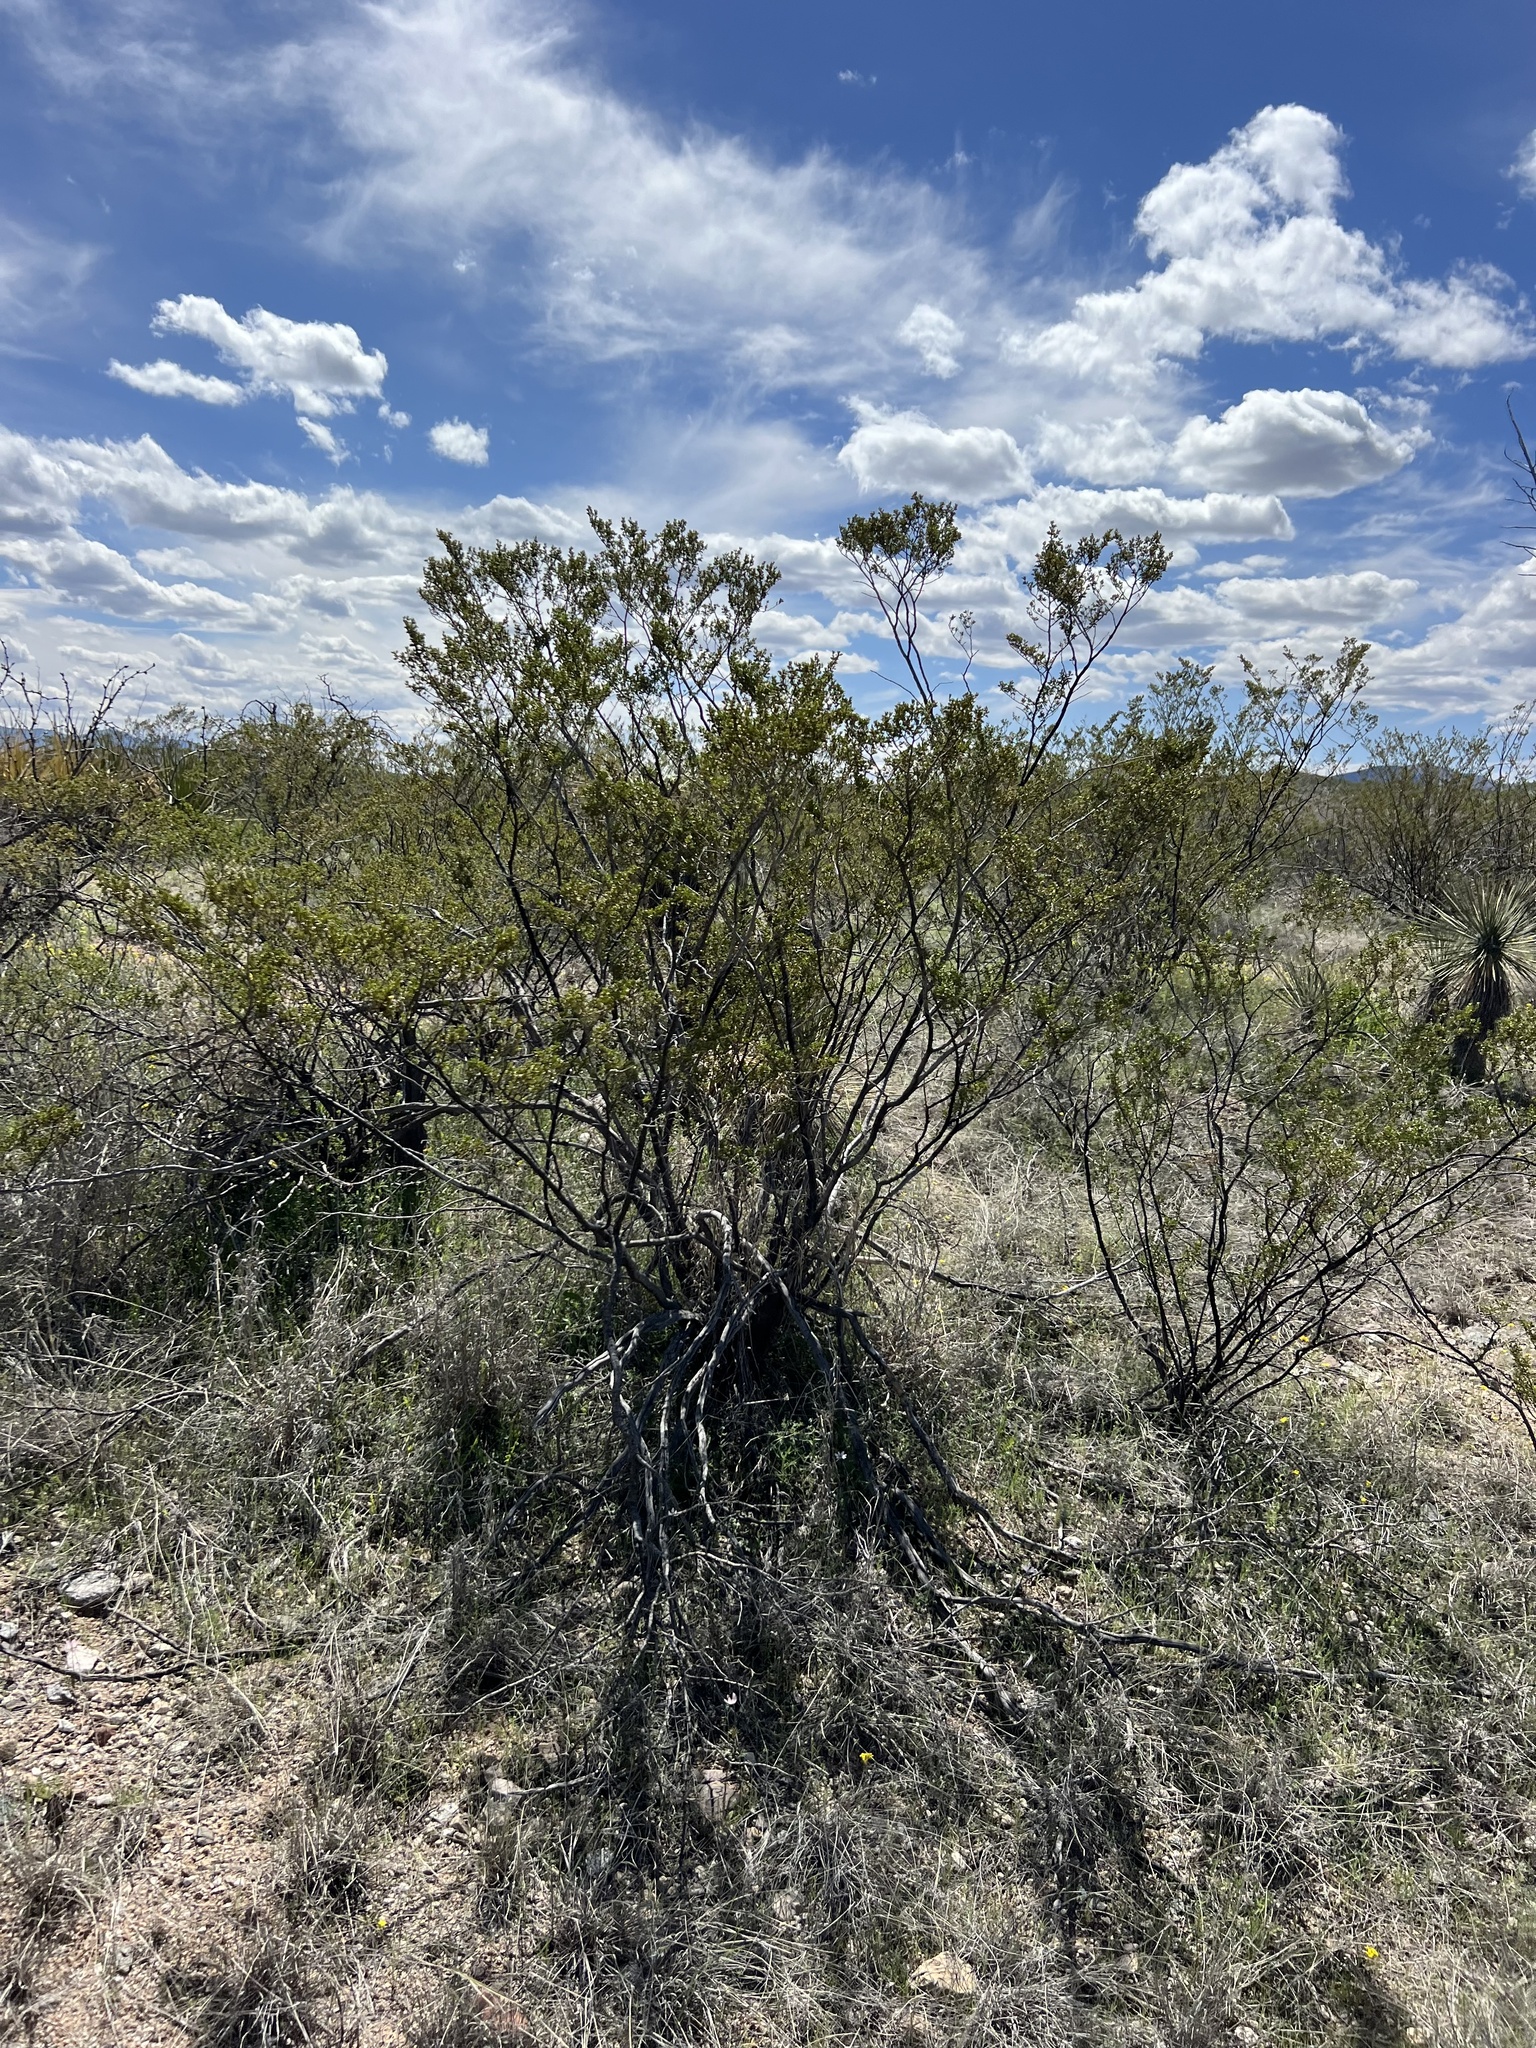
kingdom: Plantae
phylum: Tracheophyta
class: Magnoliopsida
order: Zygophyllales
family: Zygophyllaceae
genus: Larrea
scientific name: Larrea tridentata
